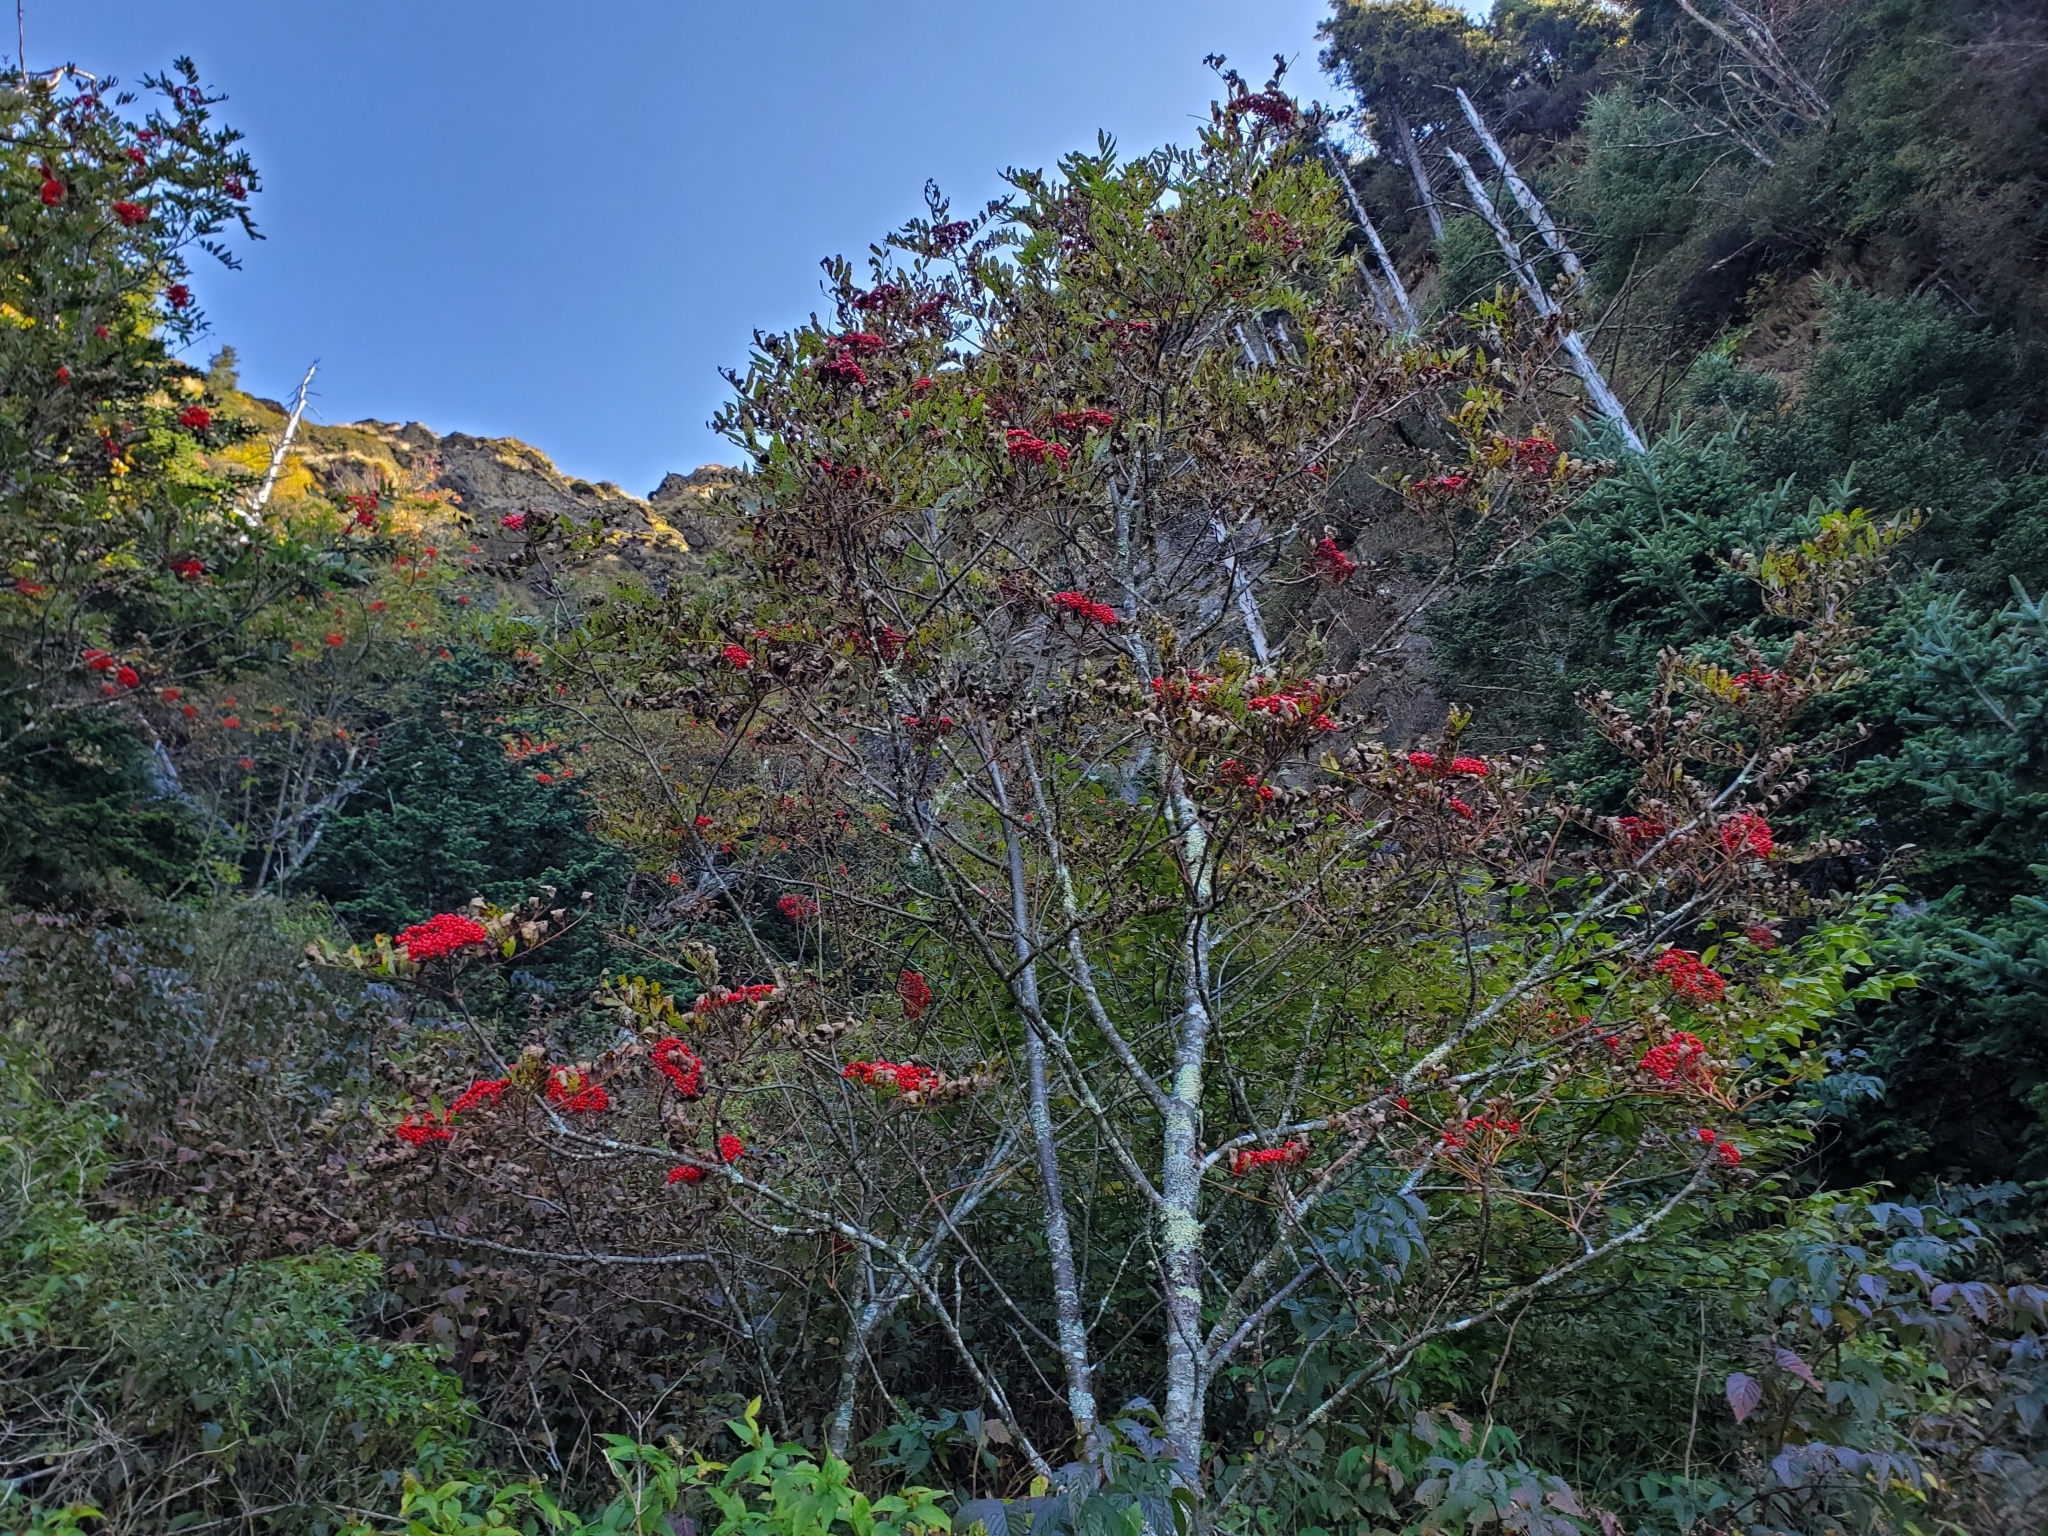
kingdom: Plantae
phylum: Tracheophyta
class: Magnoliopsida
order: Rosales
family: Rosaceae
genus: Sorbus
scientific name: Sorbus americana
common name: American mountain-ash
